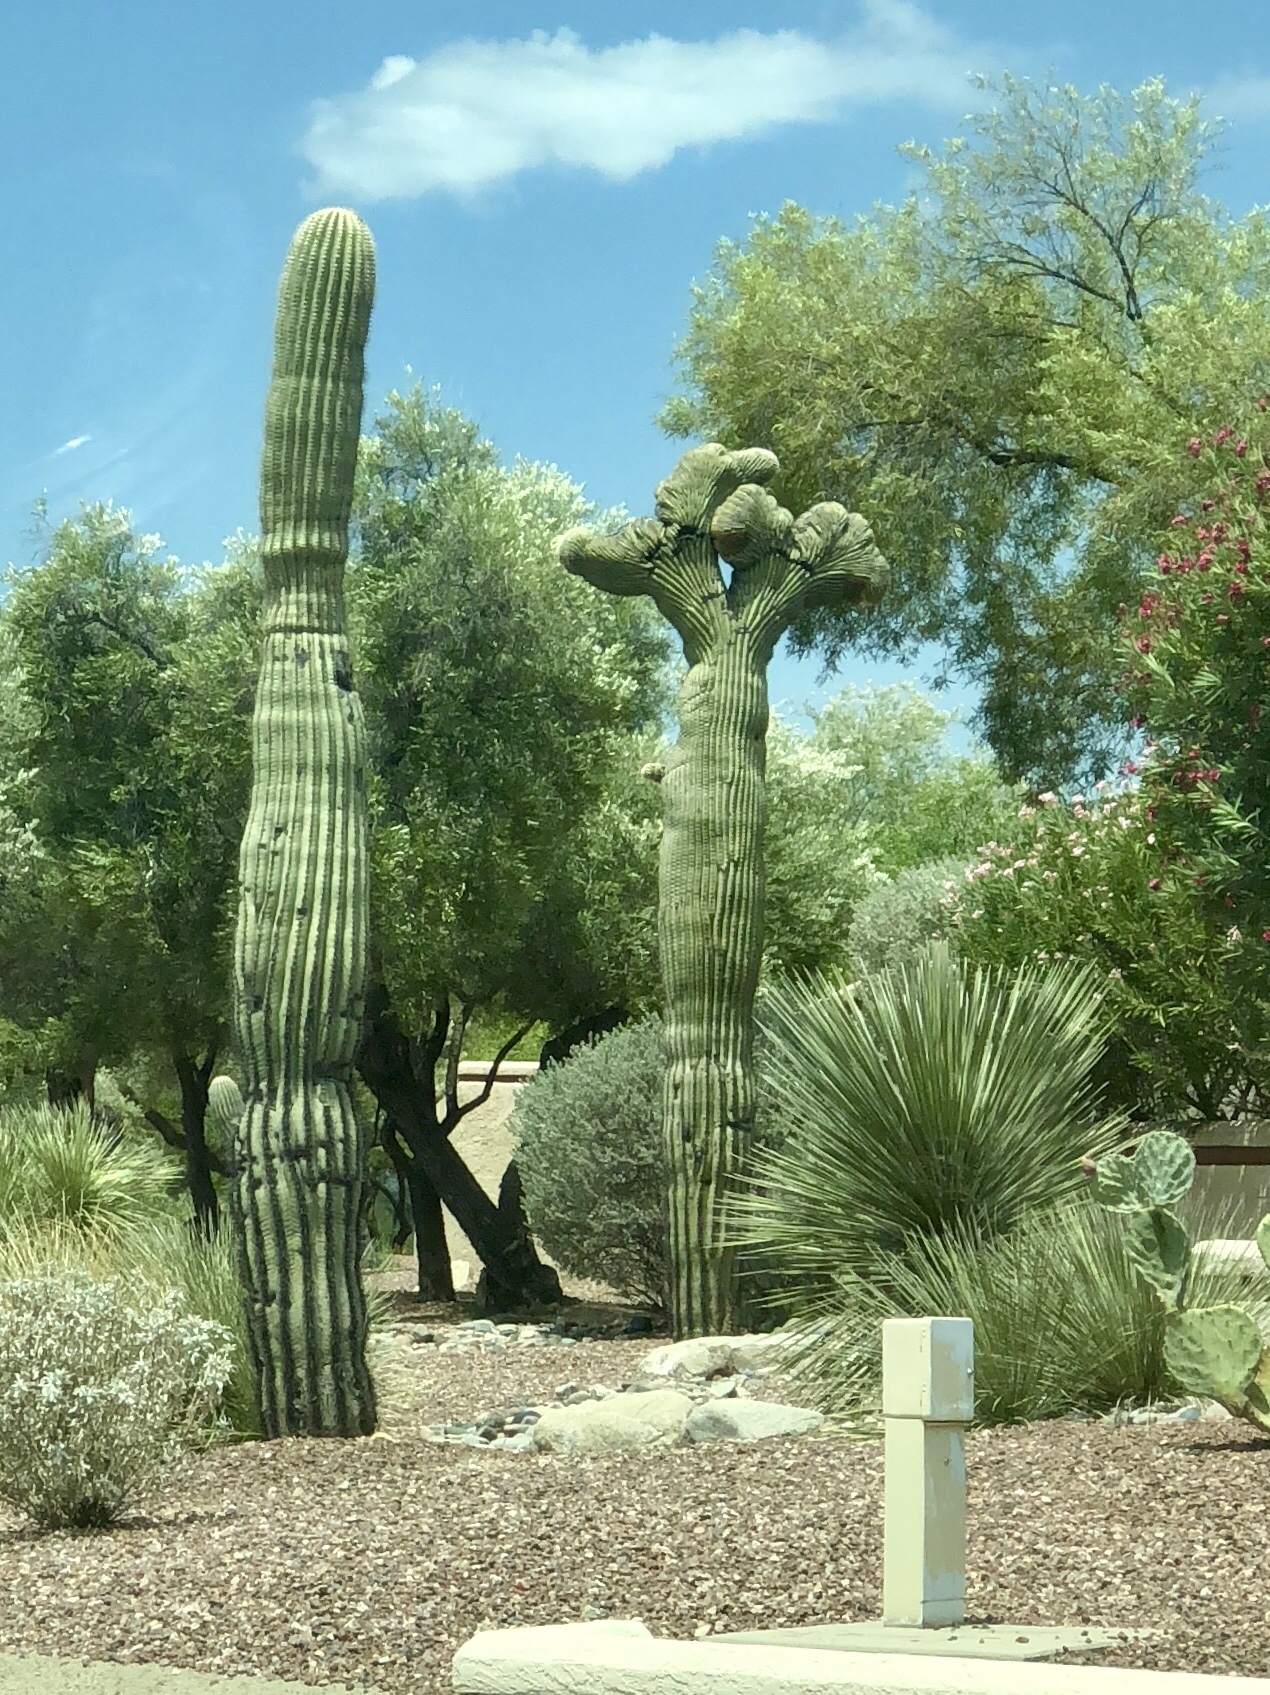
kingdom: Plantae
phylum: Tracheophyta
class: Magnoliopsida
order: Caryophyllales
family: Cactaceae
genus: Carnegiea
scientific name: Carnegiea gigantea
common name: Saguaro
